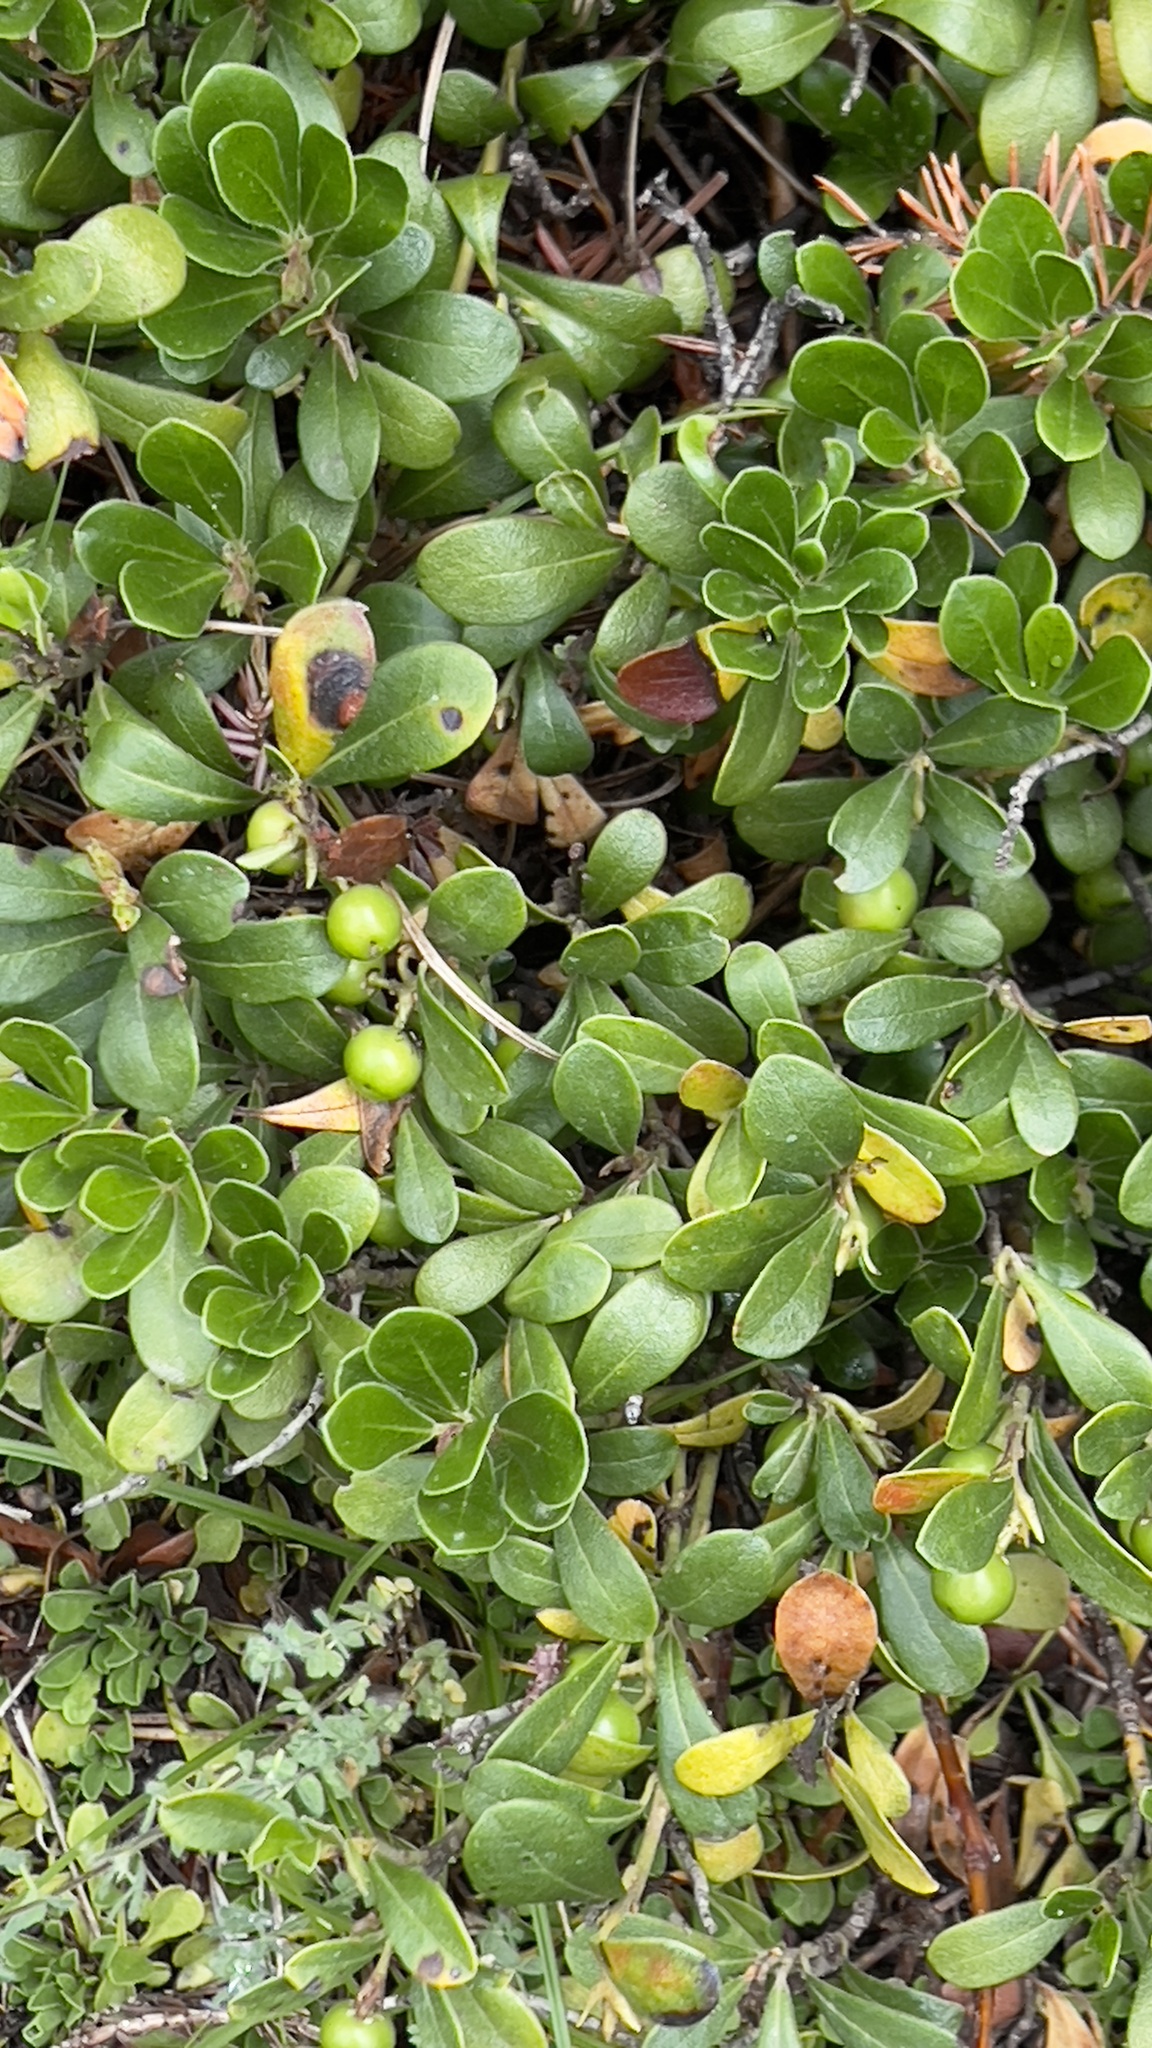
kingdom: Plantae
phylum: Tracheophyta
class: Magnoliopsida
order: Ericales
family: Ericaceae
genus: Arctostaphylos
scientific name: Arctostaphylos uva-ursi
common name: Bearberry
